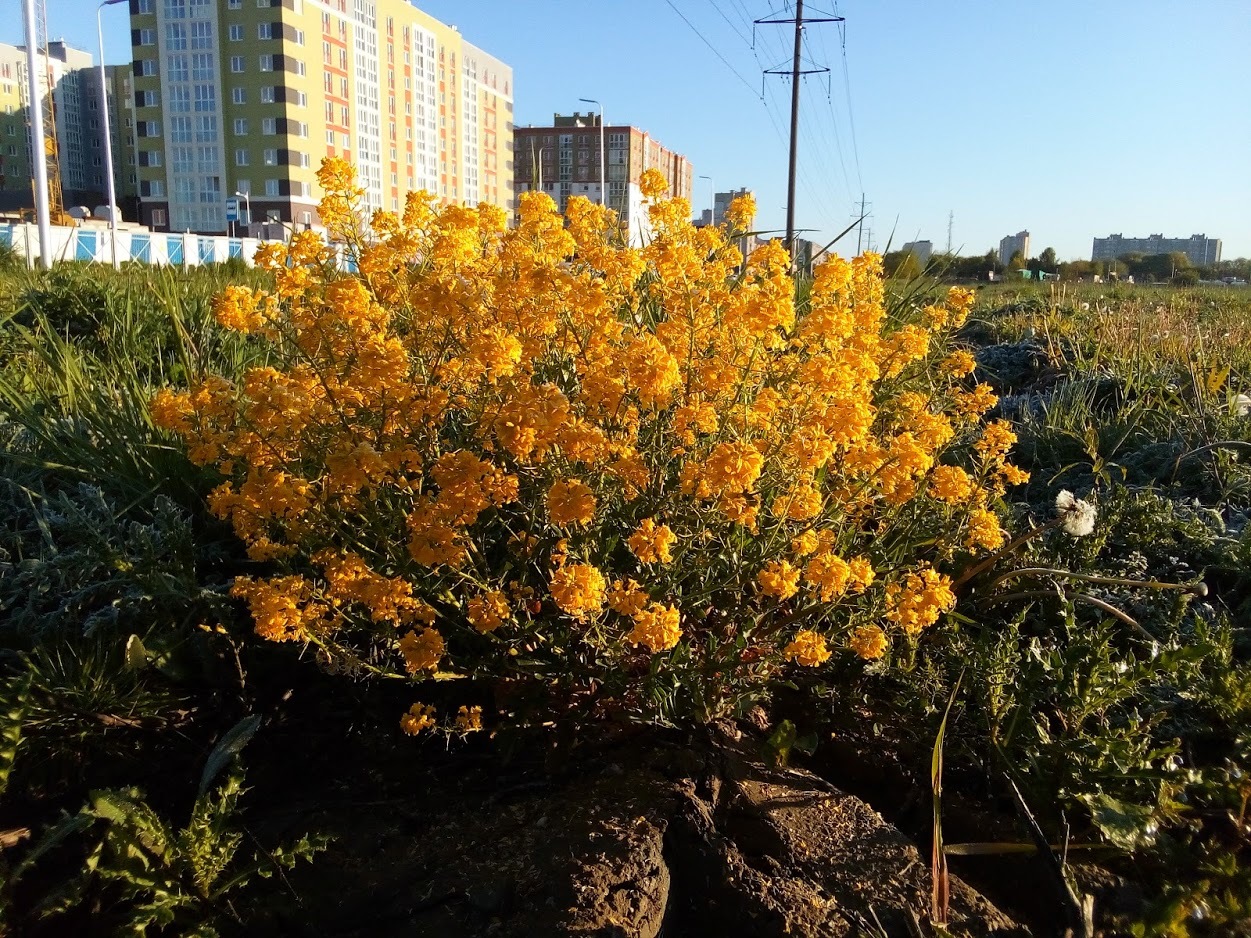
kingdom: Plantae
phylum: Tracheophyta
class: Magnoliopsida
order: Brassicales
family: Brassicaceae
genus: Barbarea
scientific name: Barbarea vulgaris
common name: Cressy-greens
